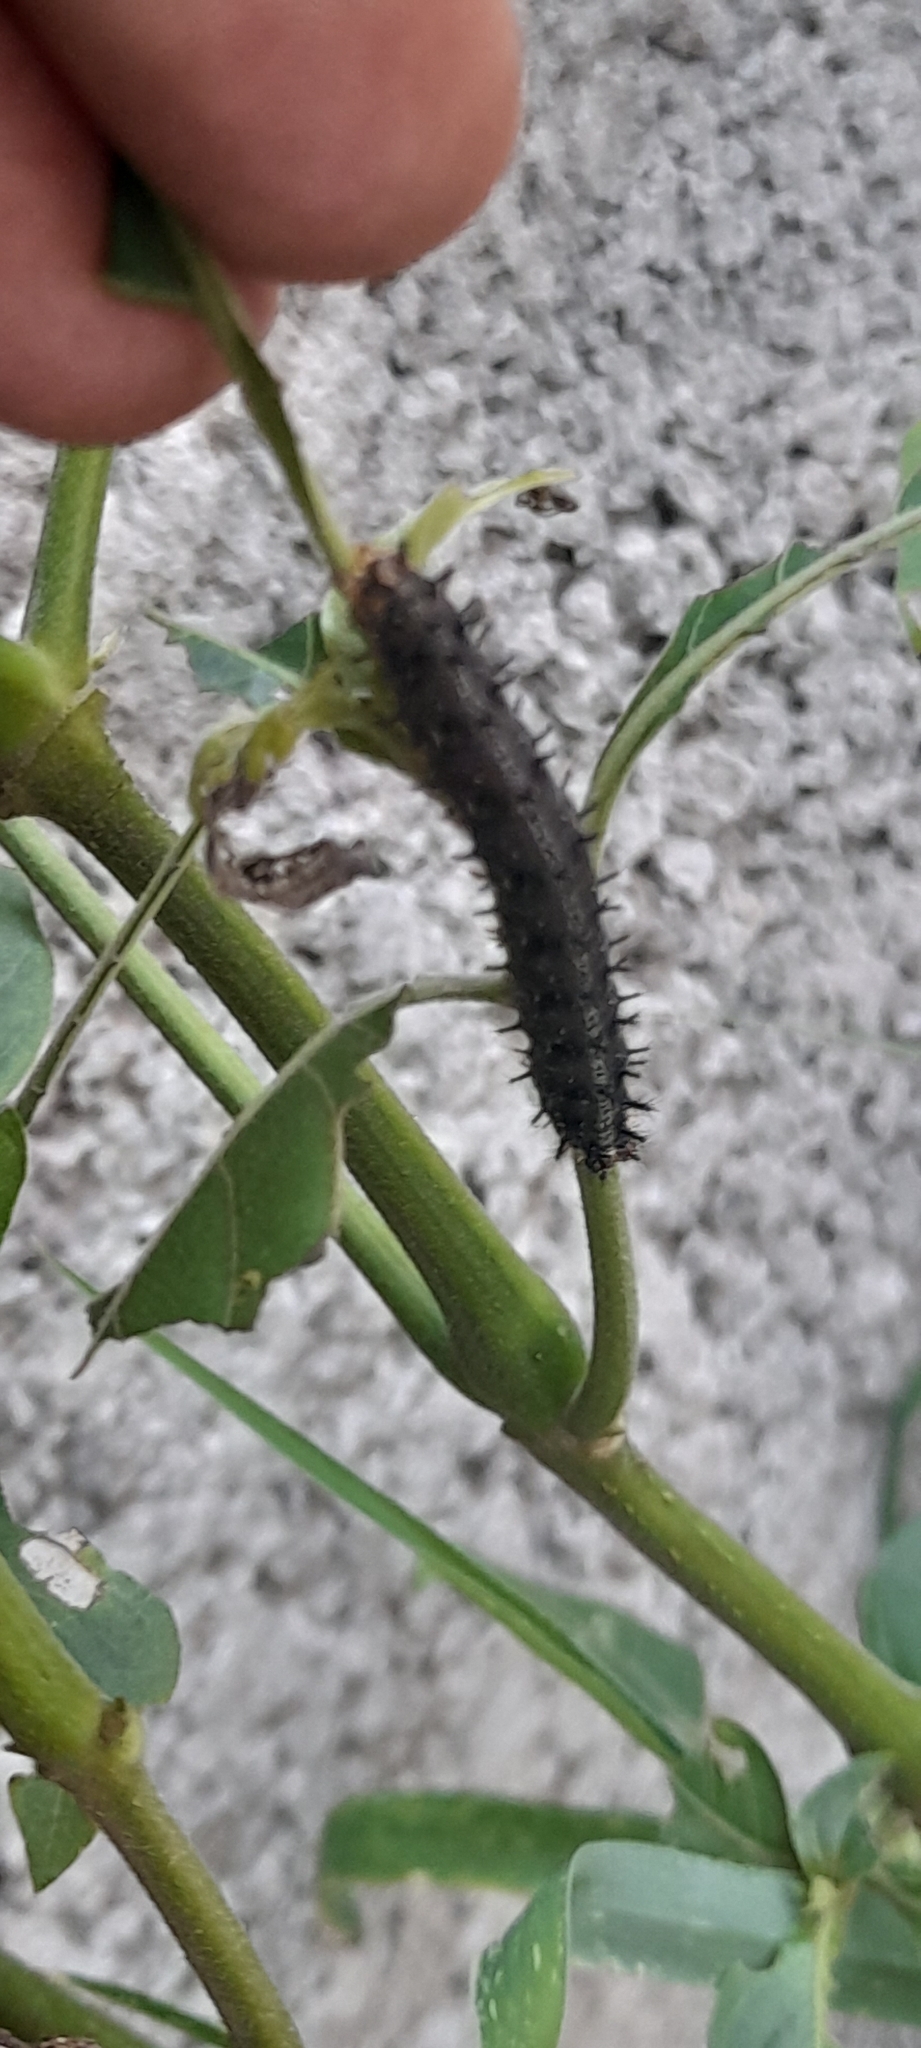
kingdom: Animalia
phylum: Arthropoda
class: Insecta
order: Lepidoptera
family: Nymphalidae
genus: Junonia
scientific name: Junonia lemonias
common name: Lemon pansy
